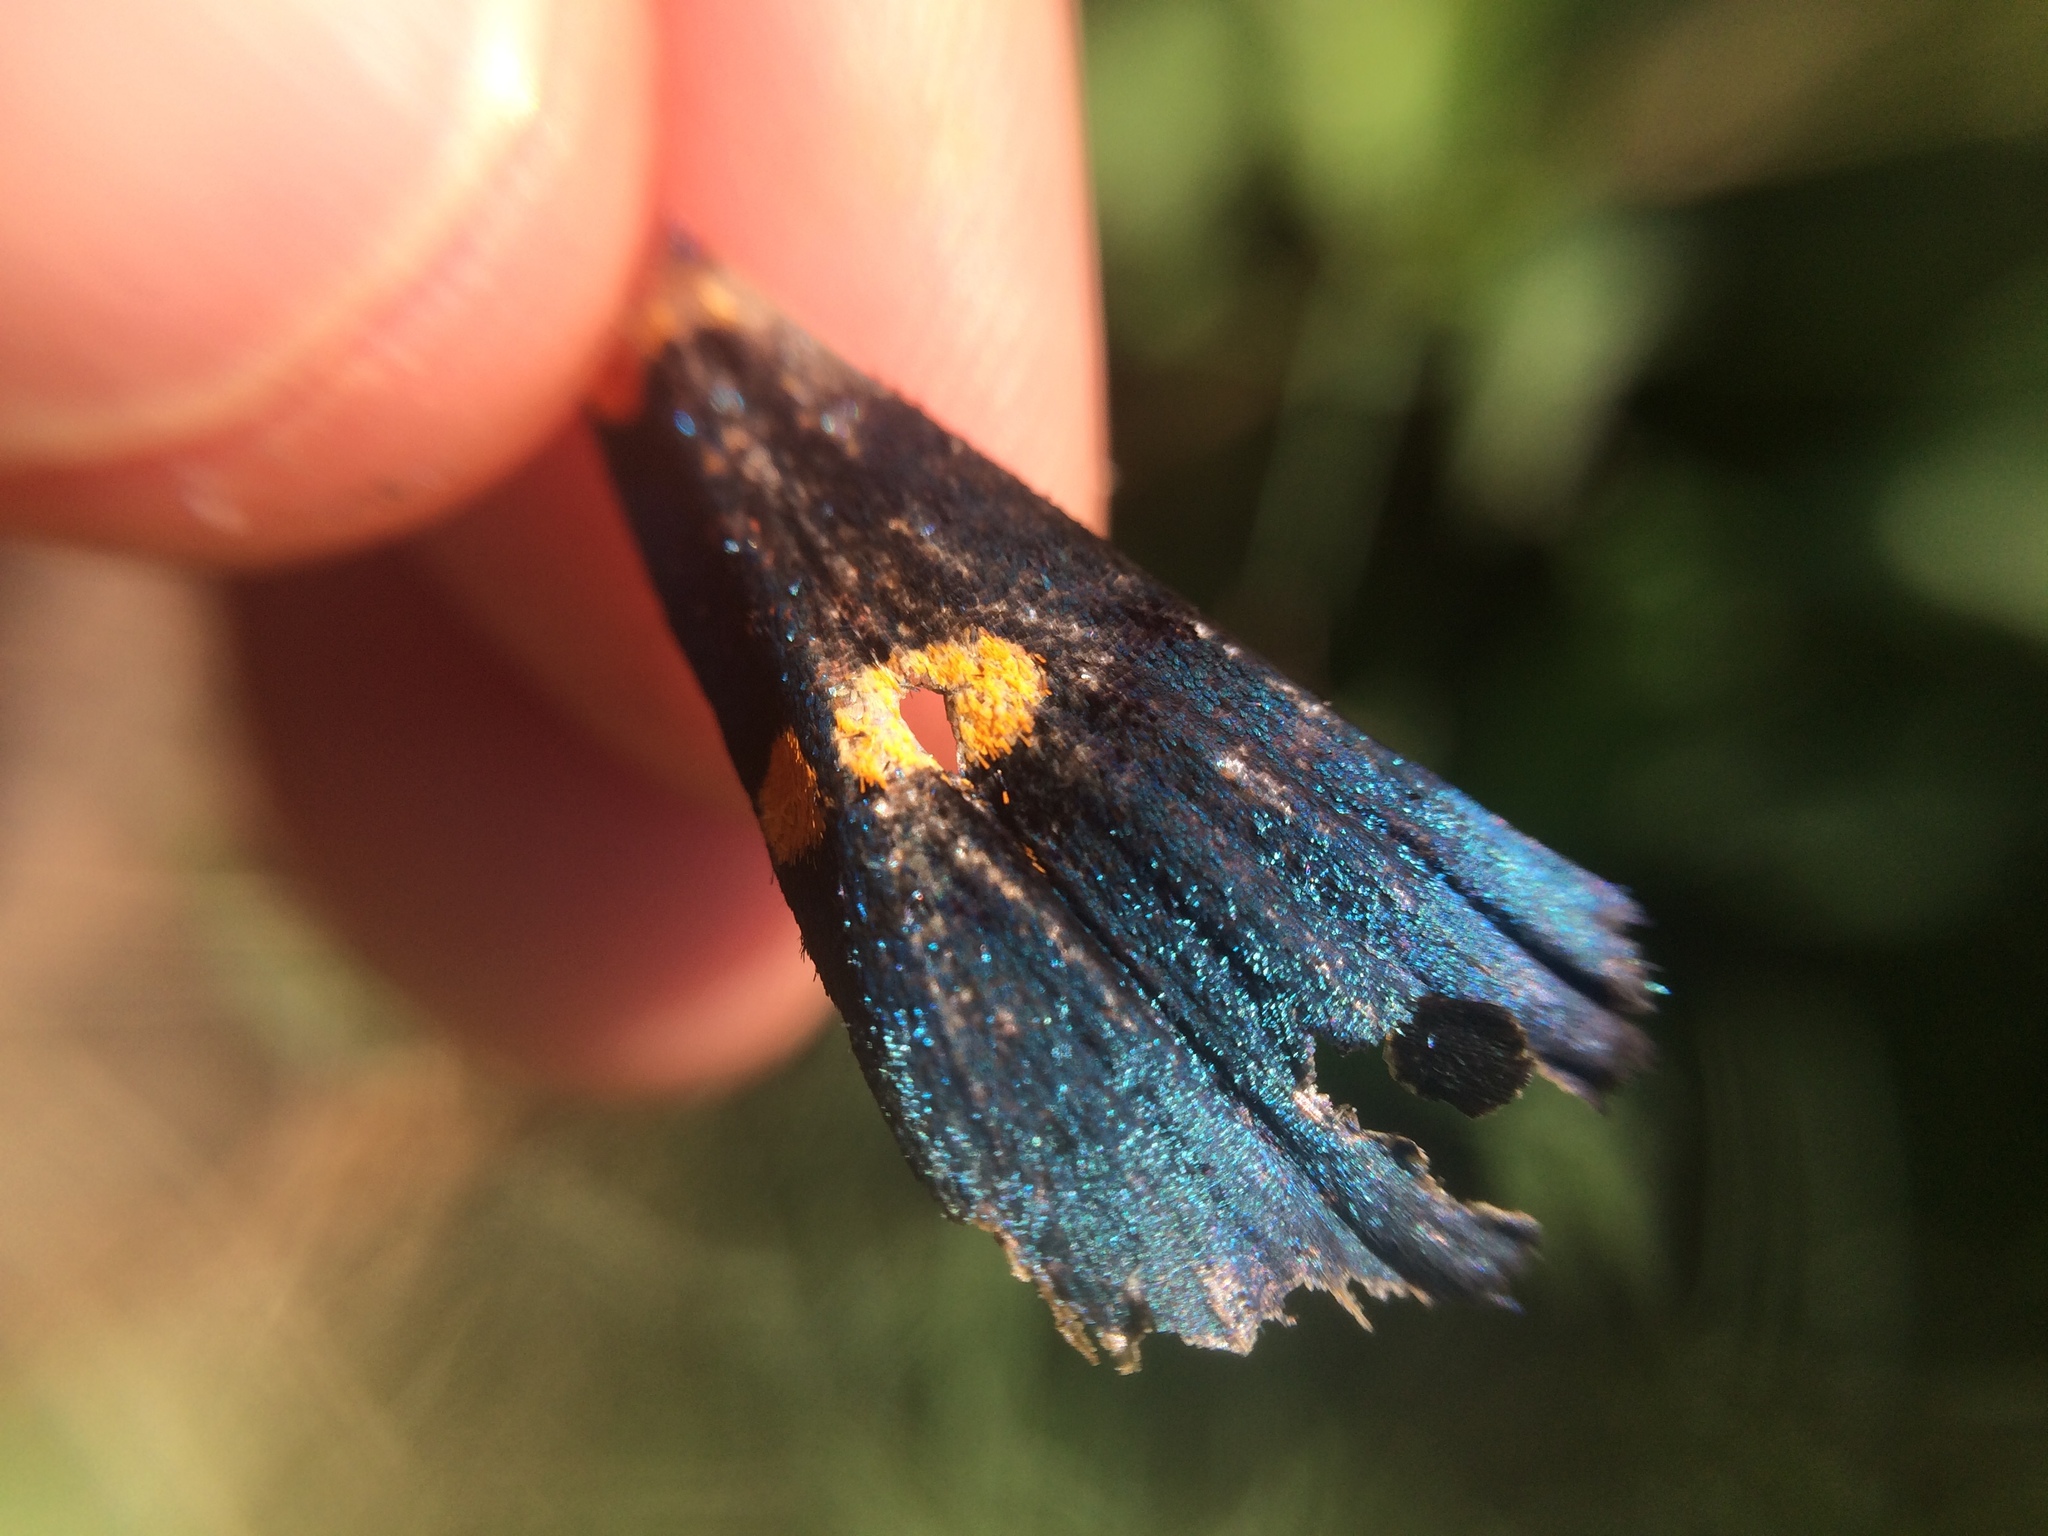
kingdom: Animalia
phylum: Arthropoda
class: Insecta
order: Lepidoptera
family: Erebidae
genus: Egybolis
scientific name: Egybolis vaillantina
